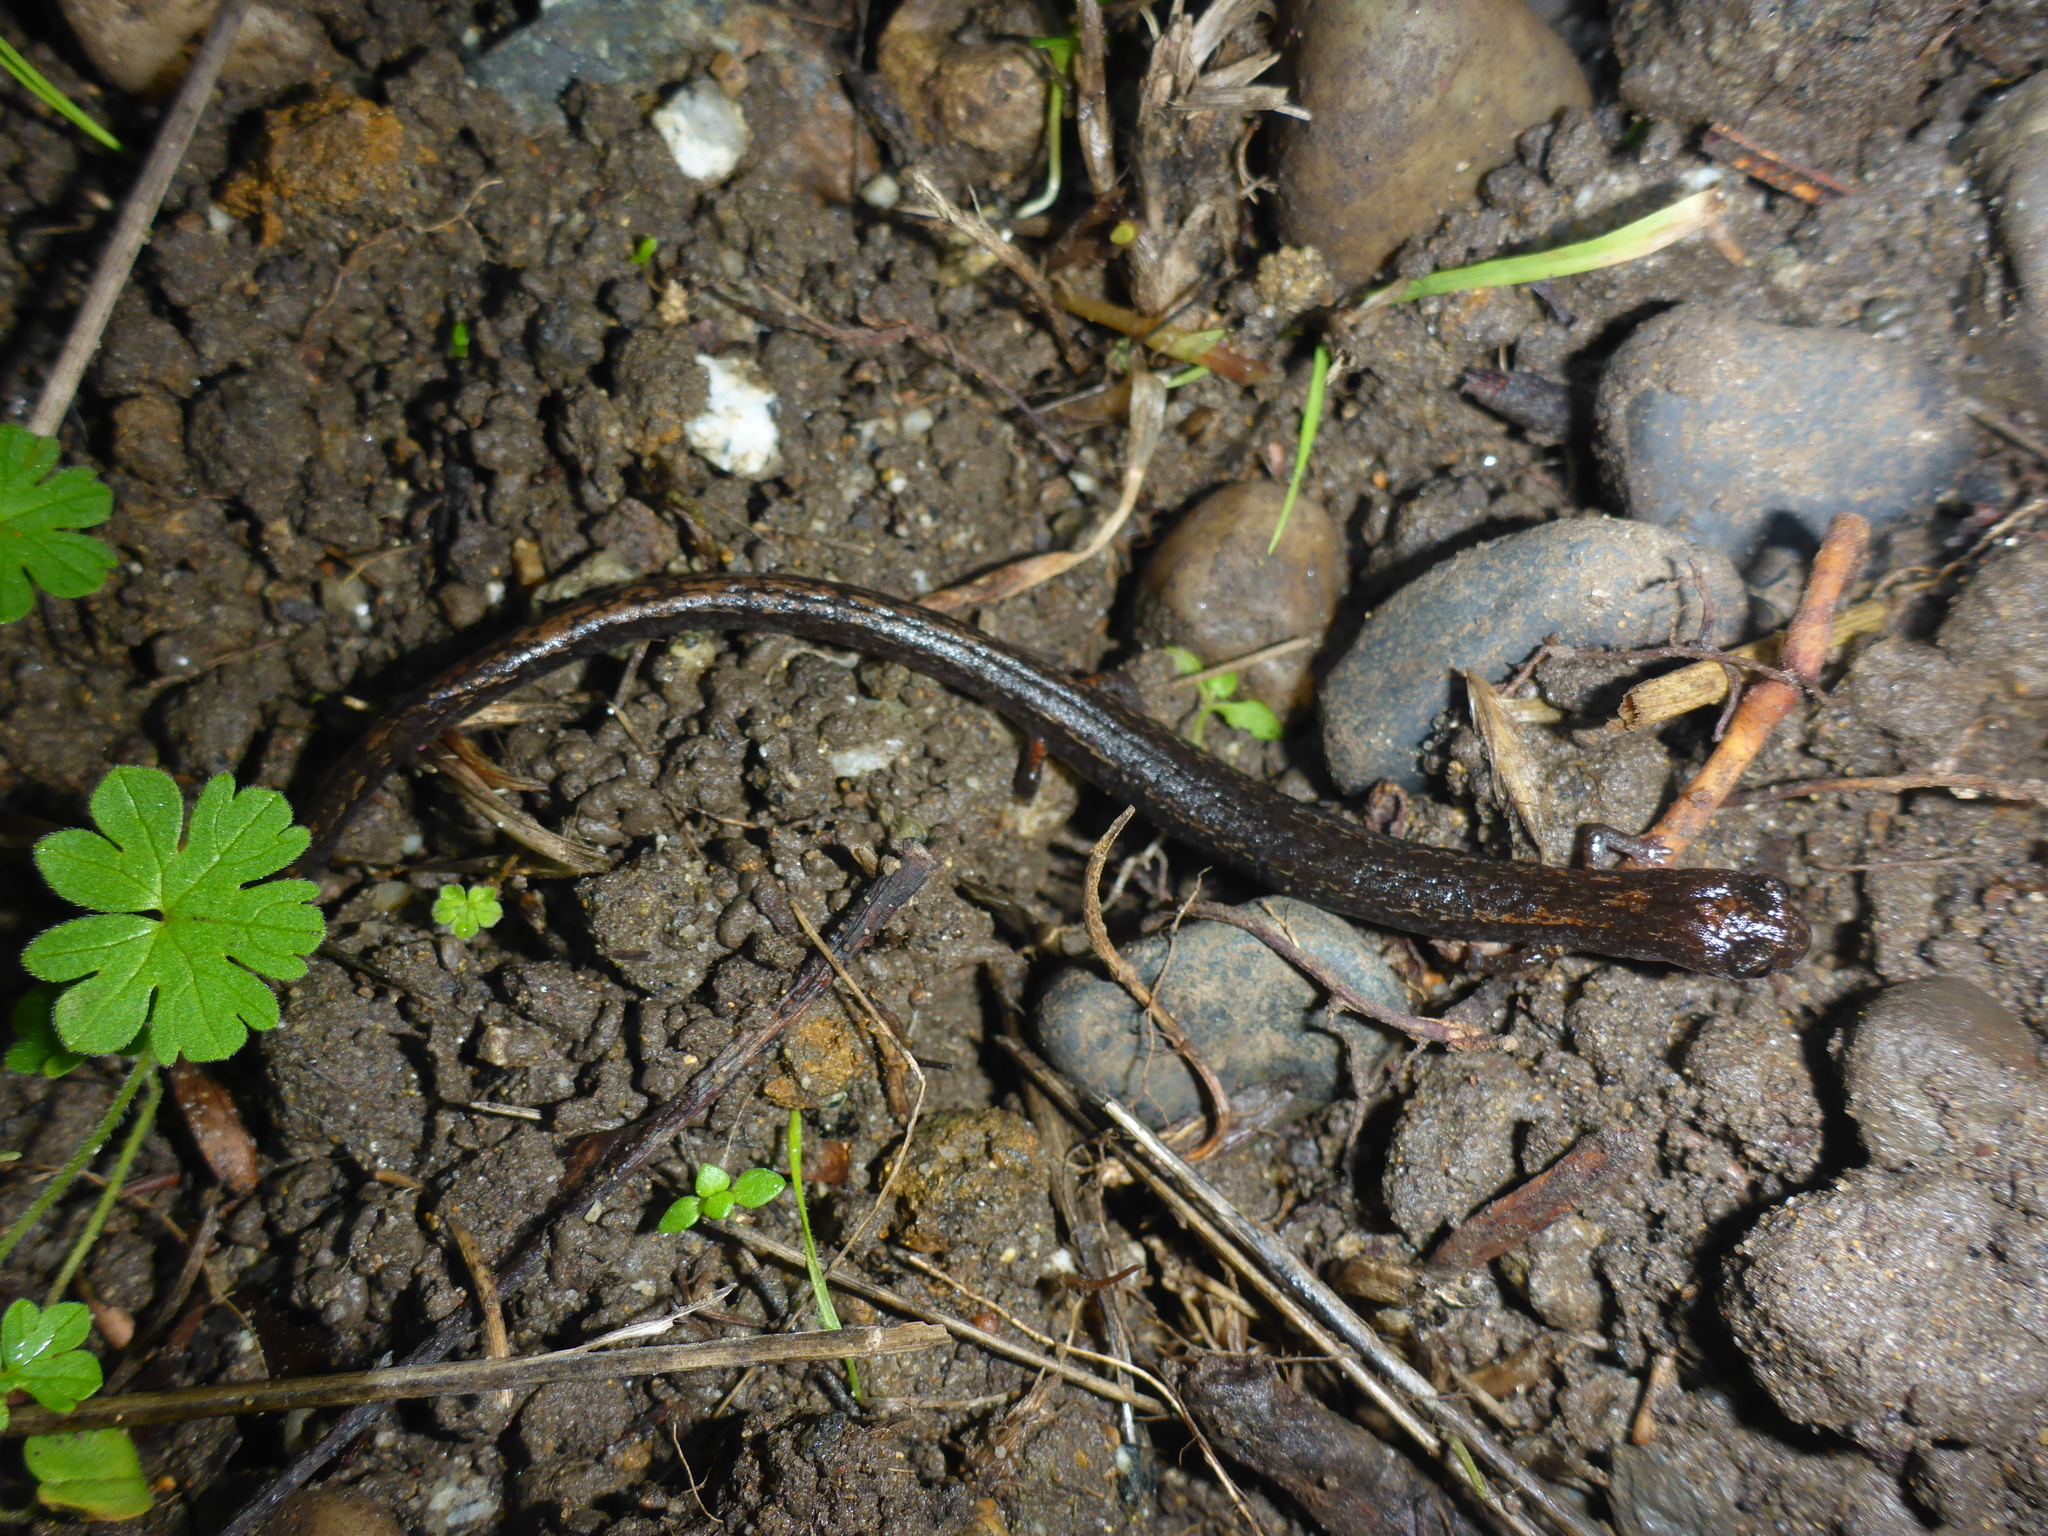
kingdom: Animalia
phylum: Chordata
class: Amphibia
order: Caudata
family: Plethodontidae
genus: Batrachoseps
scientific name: Batrachoseps attenuatus
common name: California slender salamander
